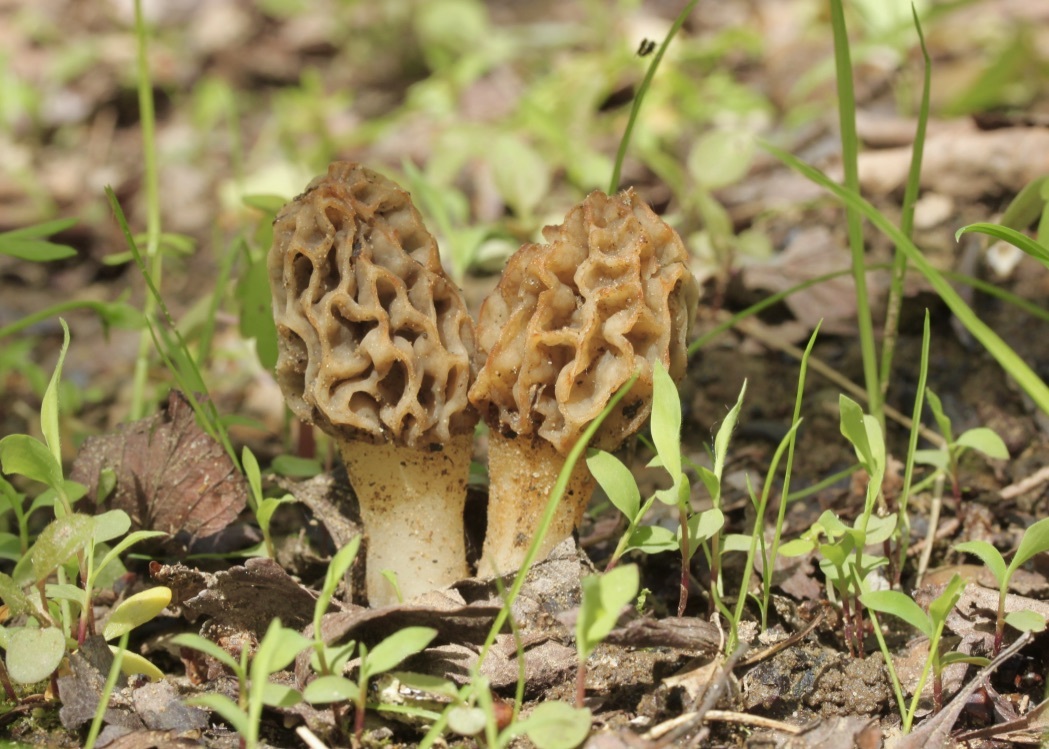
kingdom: Fungi
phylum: Ascomycota
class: Pezizomycetes
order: Pezizales
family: Morchellaceae
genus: Morchella
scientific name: Morchella diminutiva
